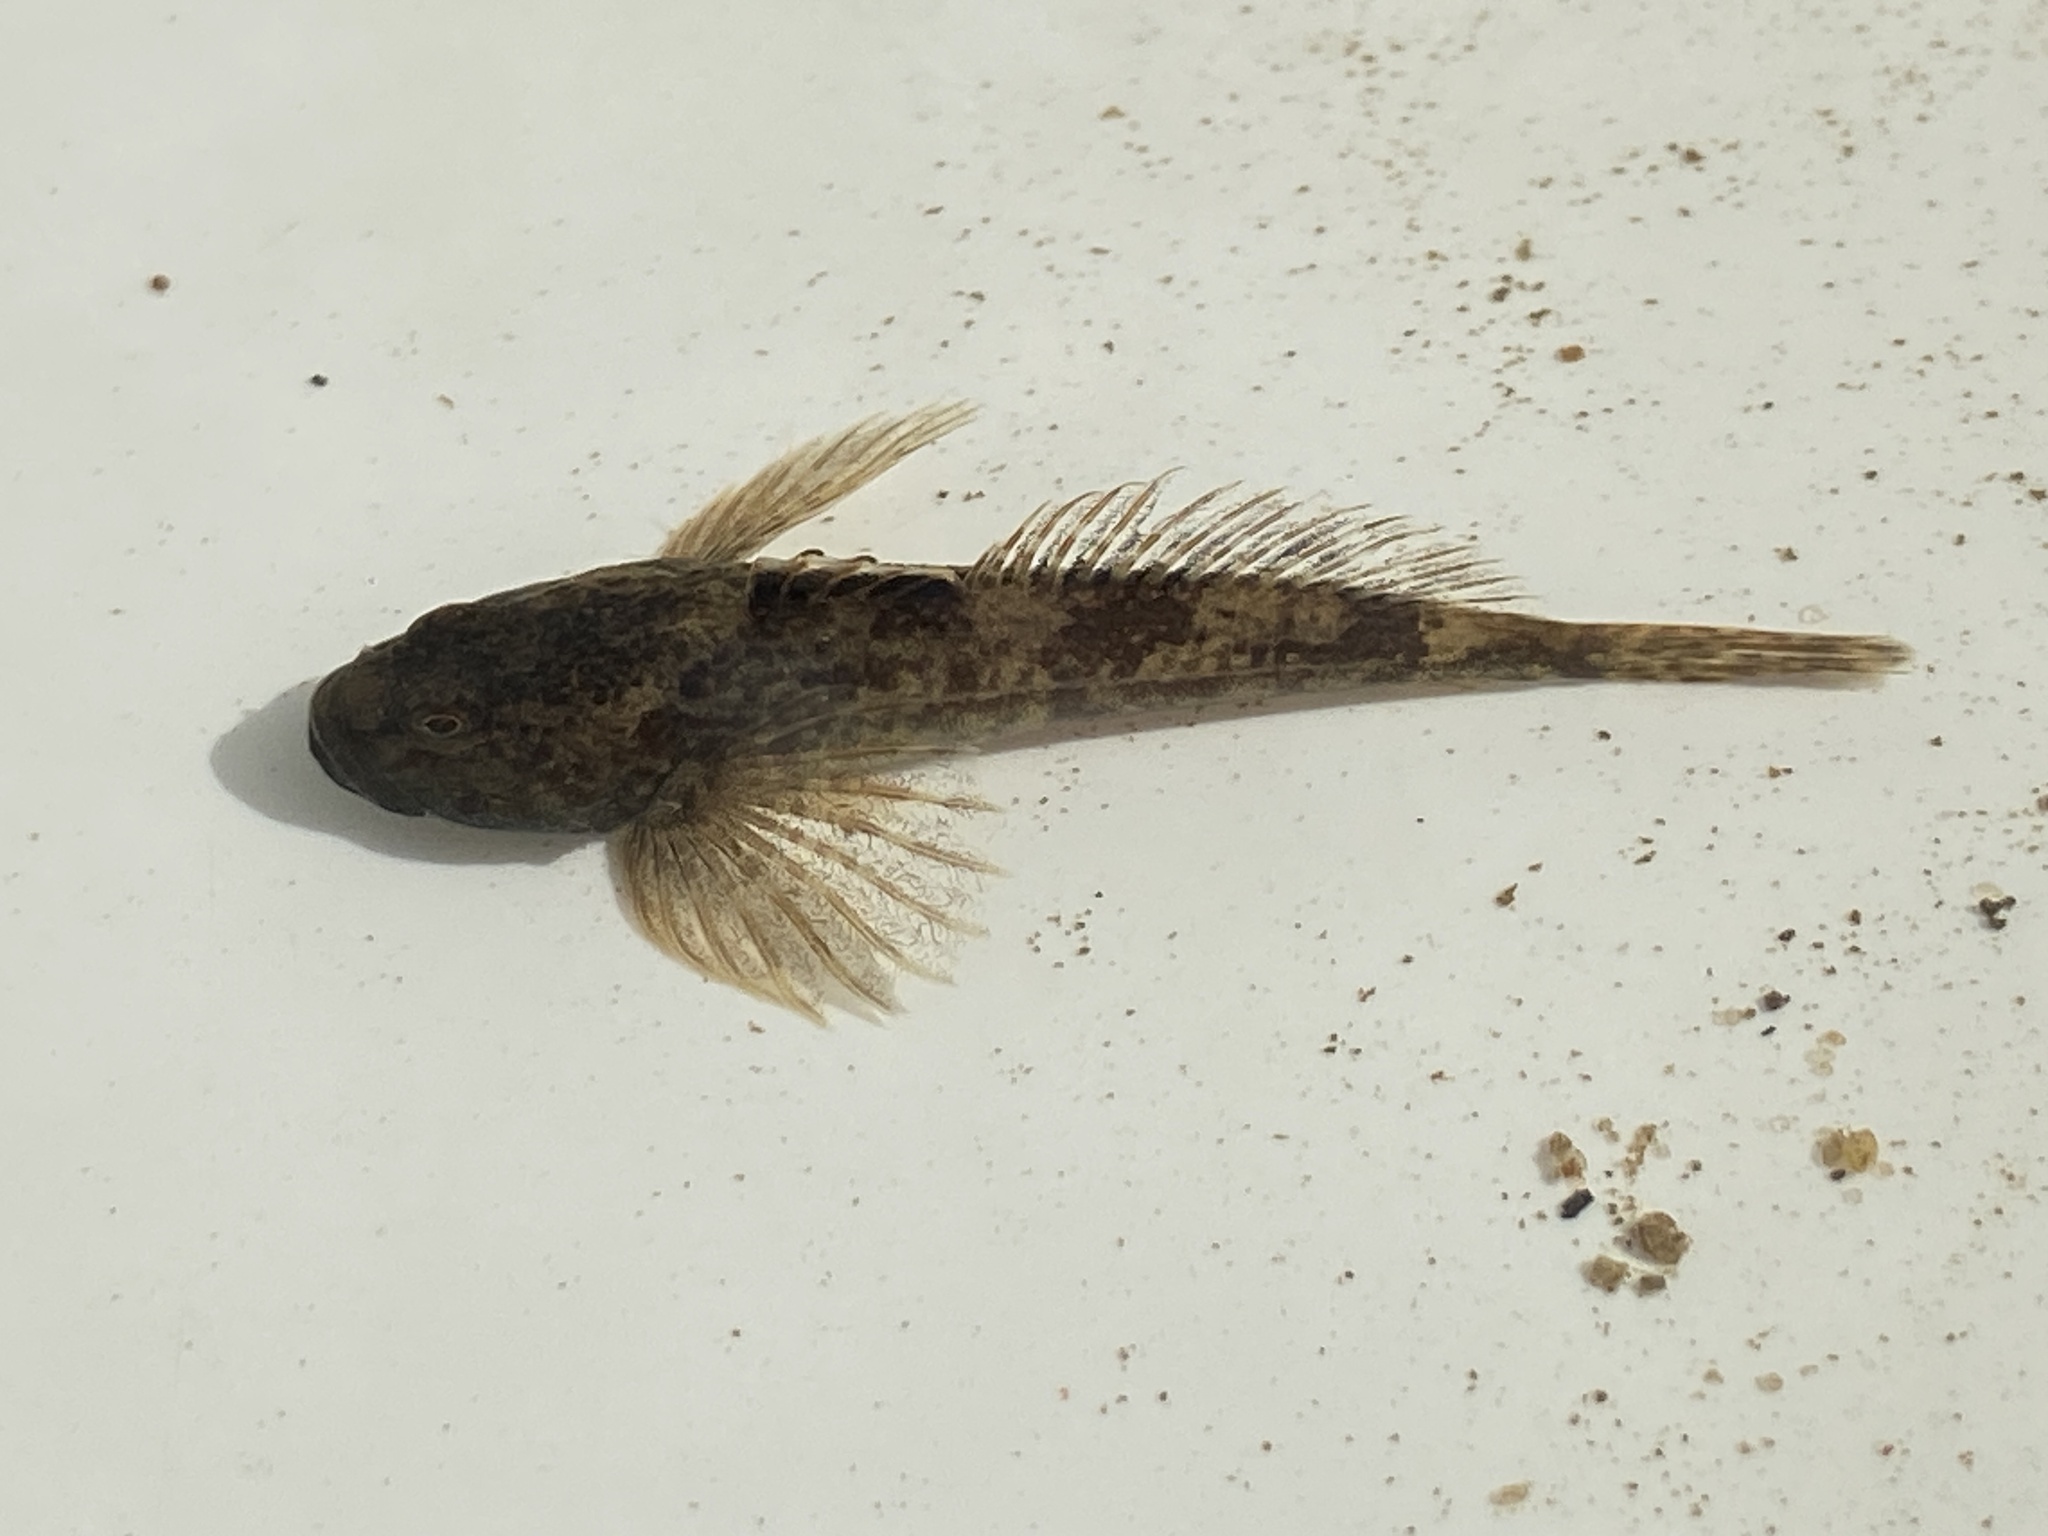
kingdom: Animalia
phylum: Chordata
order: Scorpaeniformes
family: Cottidae
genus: Cottus
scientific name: Cottus perifretum
